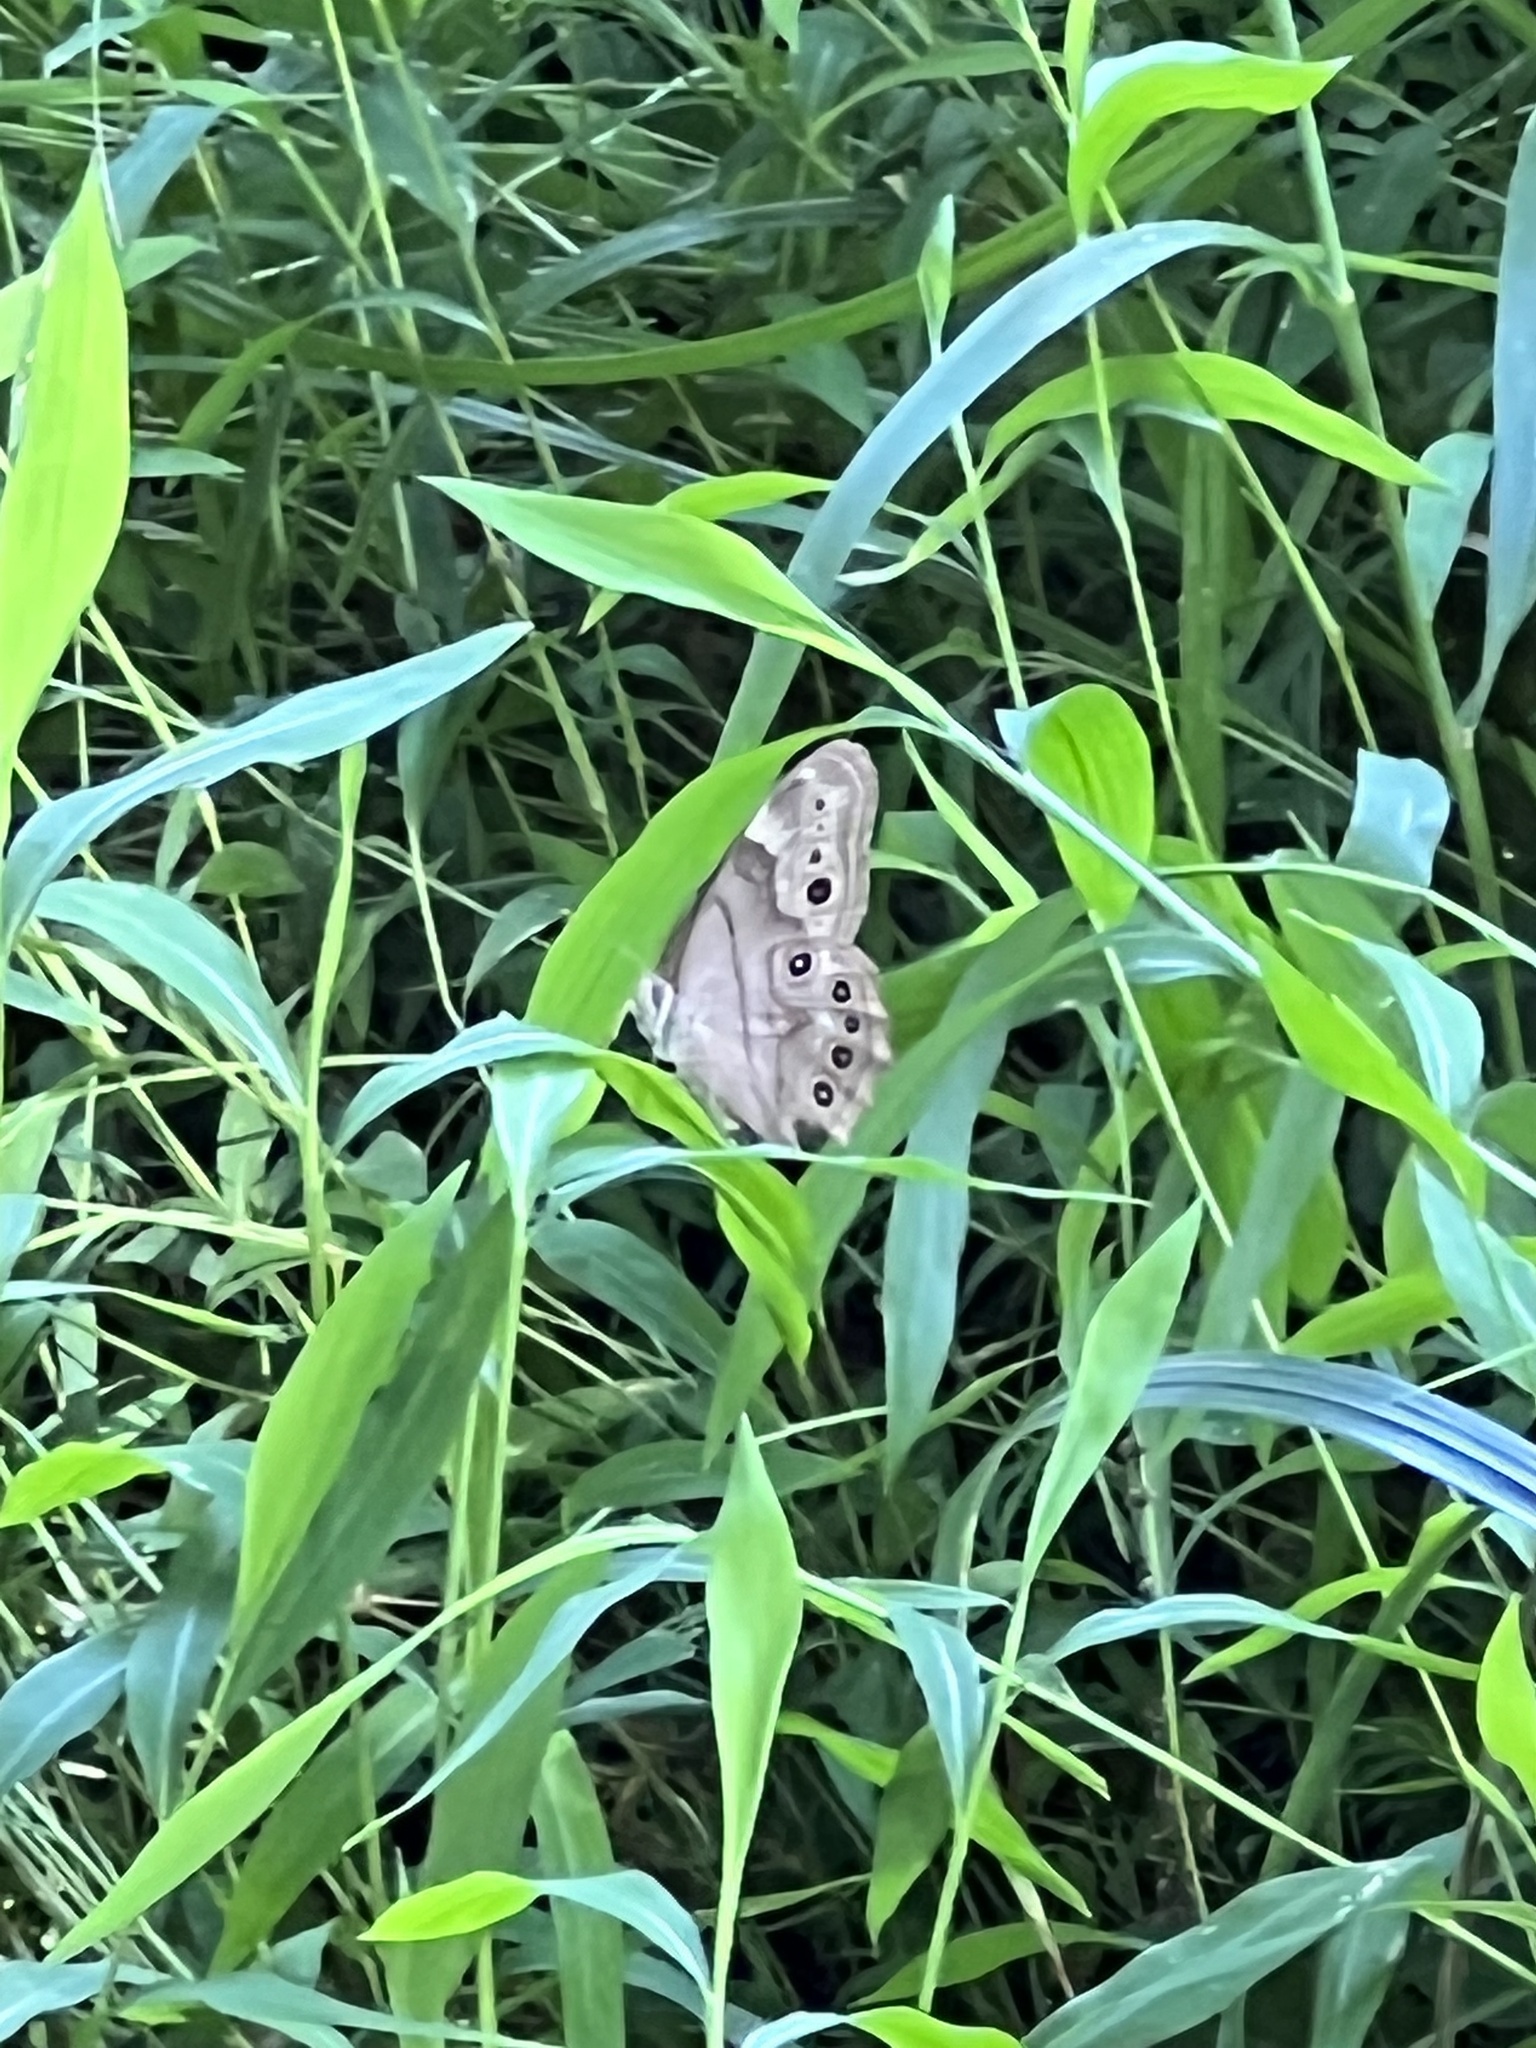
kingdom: Animalia
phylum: Arthropoda
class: Insecta
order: Lepidoptera
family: Nymphalidae
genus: Lethe
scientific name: Lethe anthedon
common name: Northern pearly-eye
